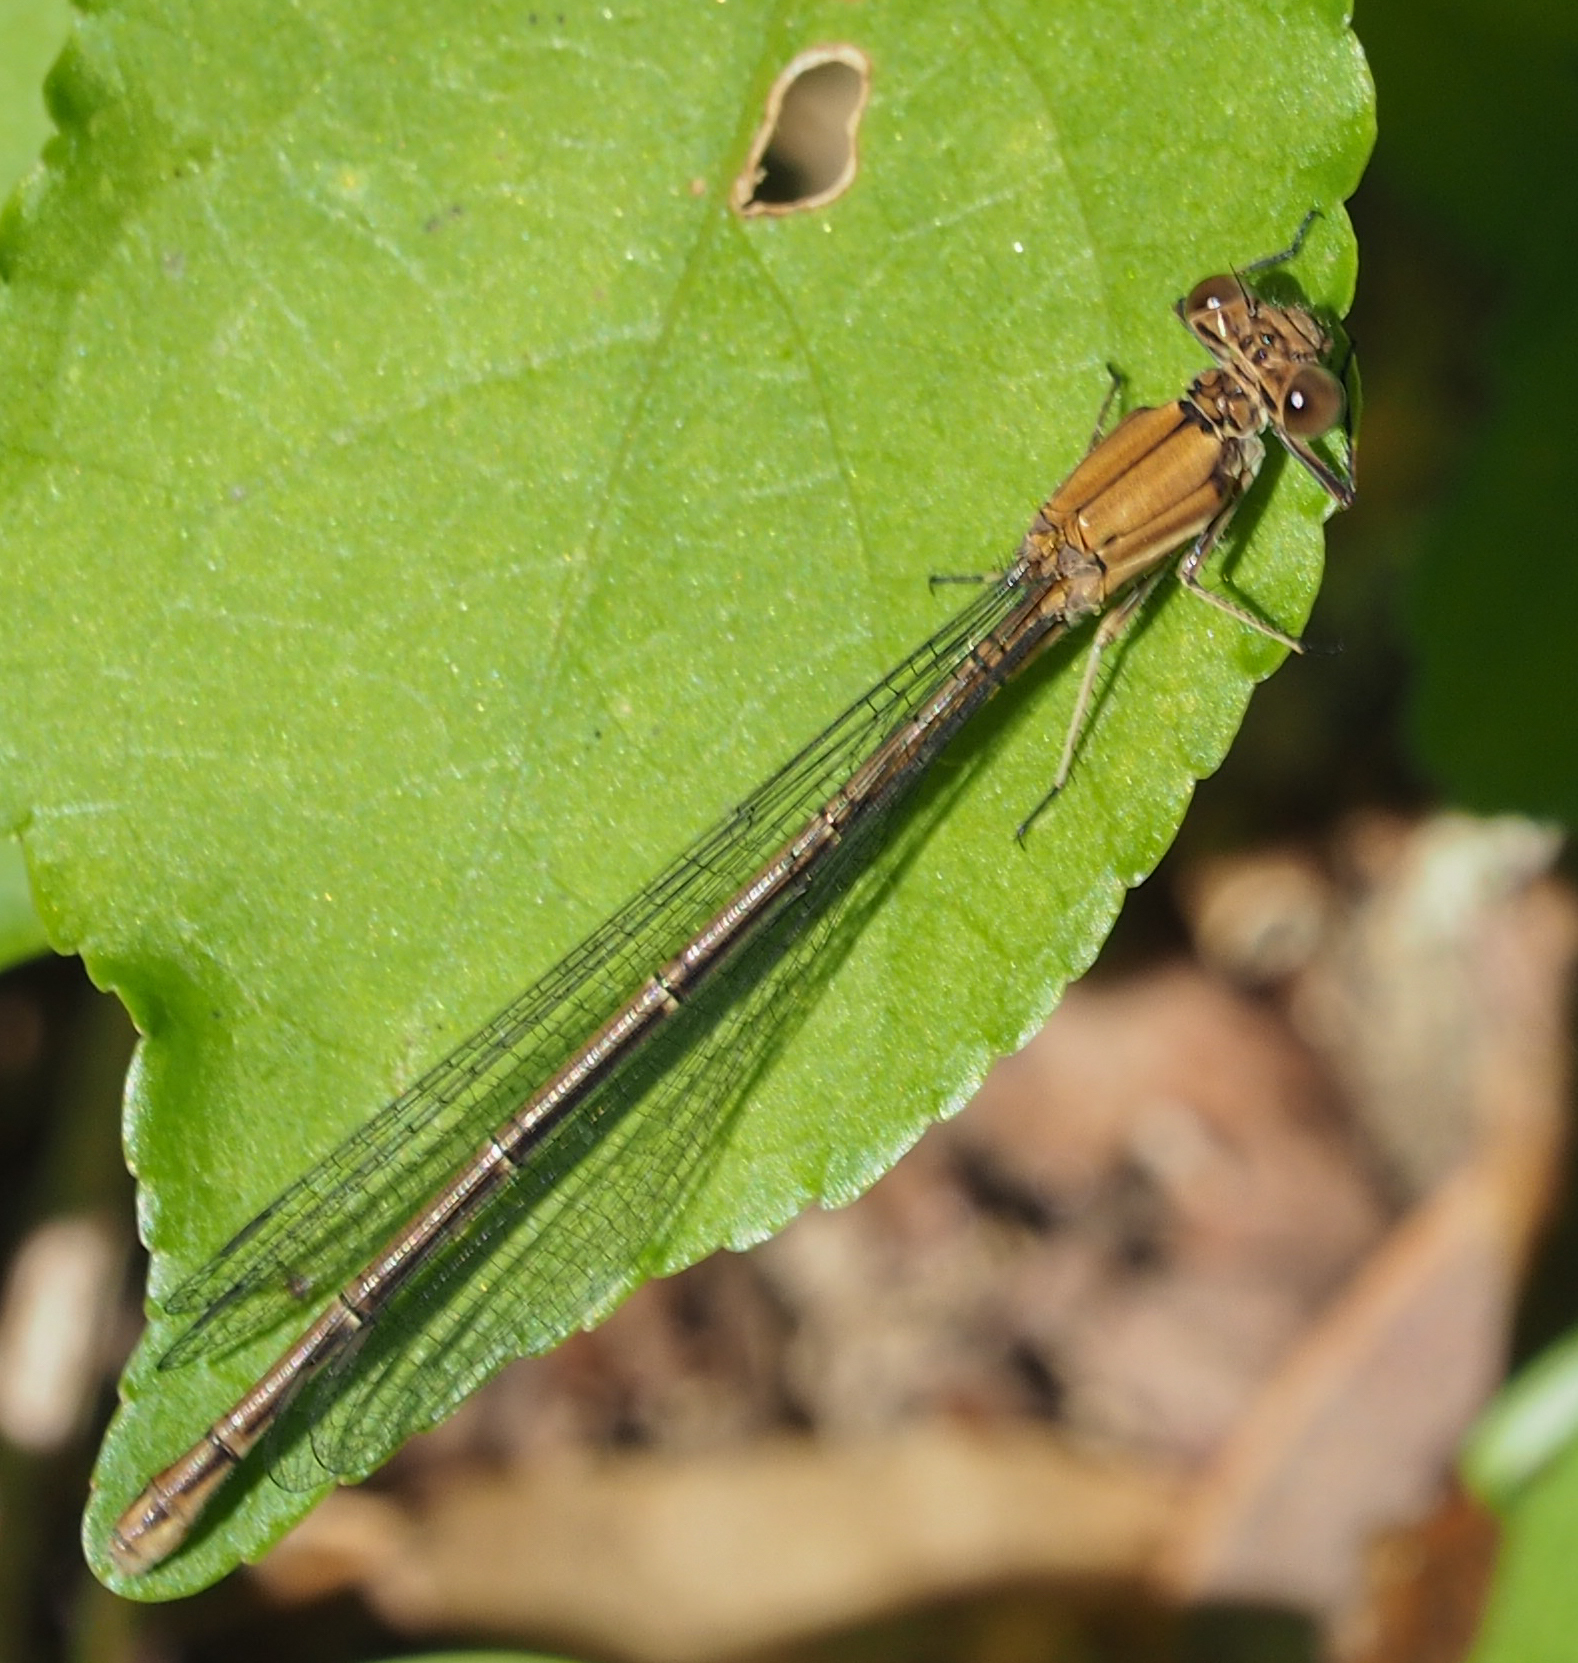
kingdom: Animalia
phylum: Arthropoda
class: Insecta
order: Odonata
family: Coenagrionidae
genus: Argia
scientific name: Argia moesta
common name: Powdered dancer
